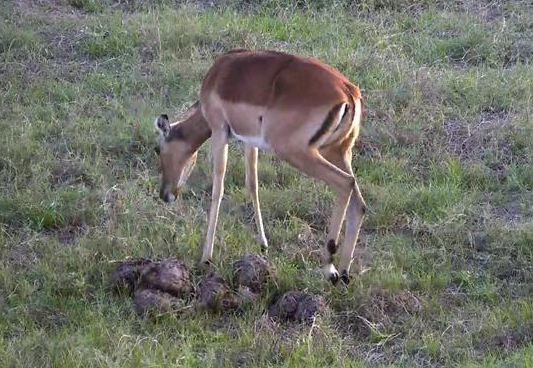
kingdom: Animalia
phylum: Chordata
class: Mammalia
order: Artiodactyla
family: Bovidae
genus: Aepyceros
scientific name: Aepyceros melampus
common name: Impala
